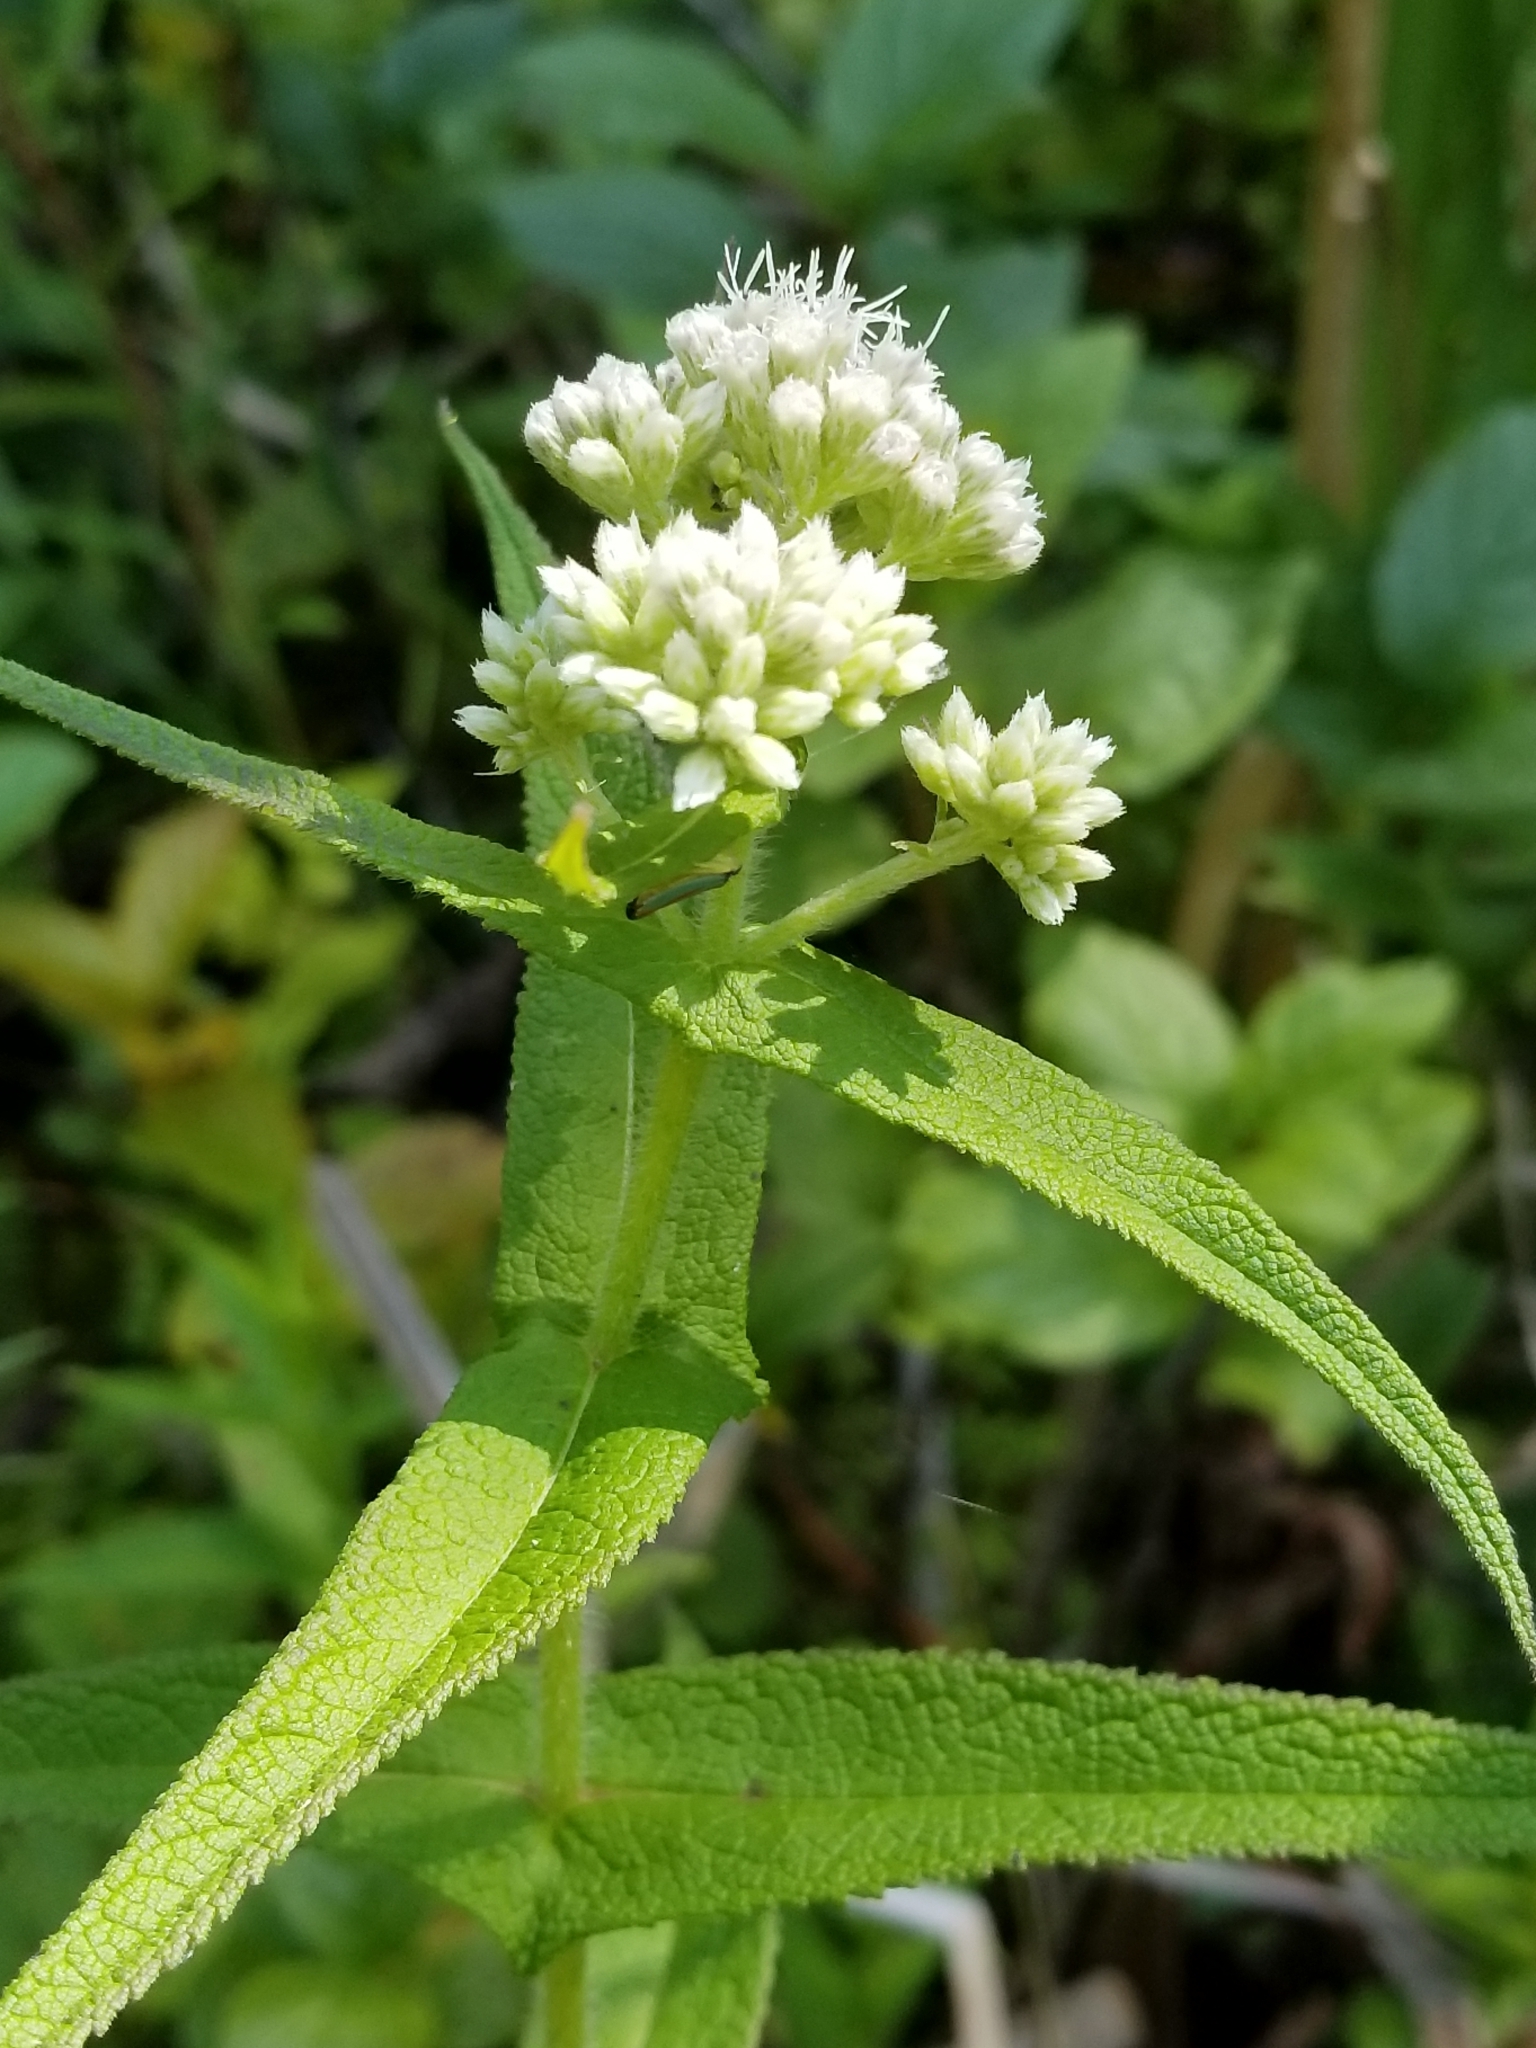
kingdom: Plantae
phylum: Tracheophyta
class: Magnoliopsida
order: Asterales
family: Asteraceae
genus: Eupatorium
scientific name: Eupatorium perfoliatum
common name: Boneset
